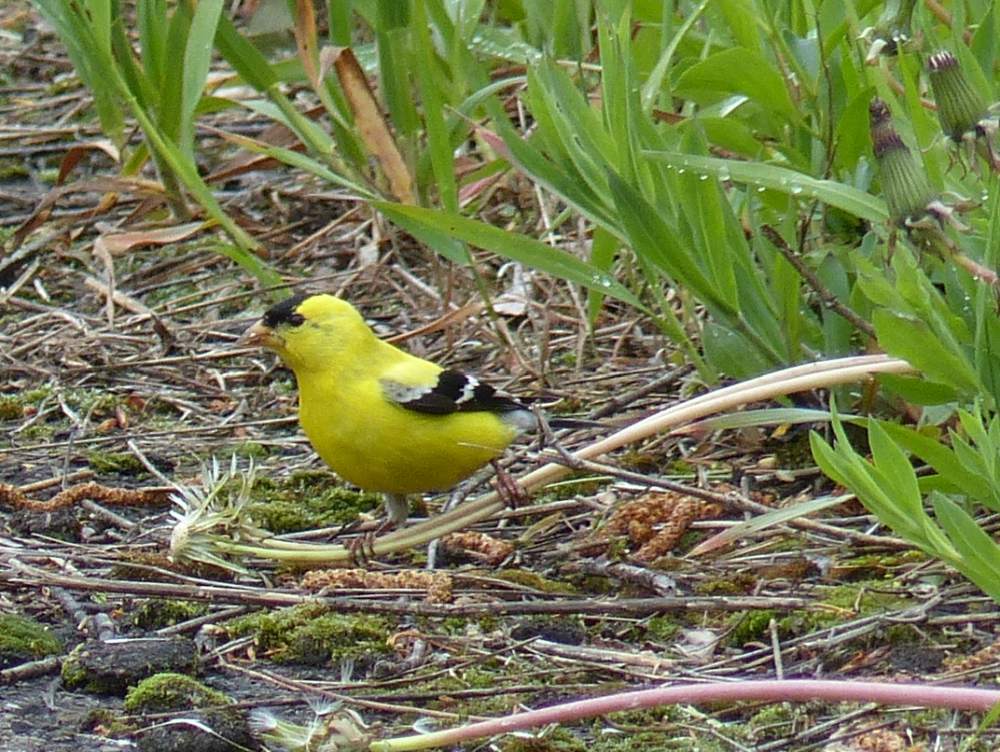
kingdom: Animalia
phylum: Chordata
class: Aves
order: Passeriformes
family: Fringillidae
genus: Spinus
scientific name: Spinus tristis
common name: American goldfinch
